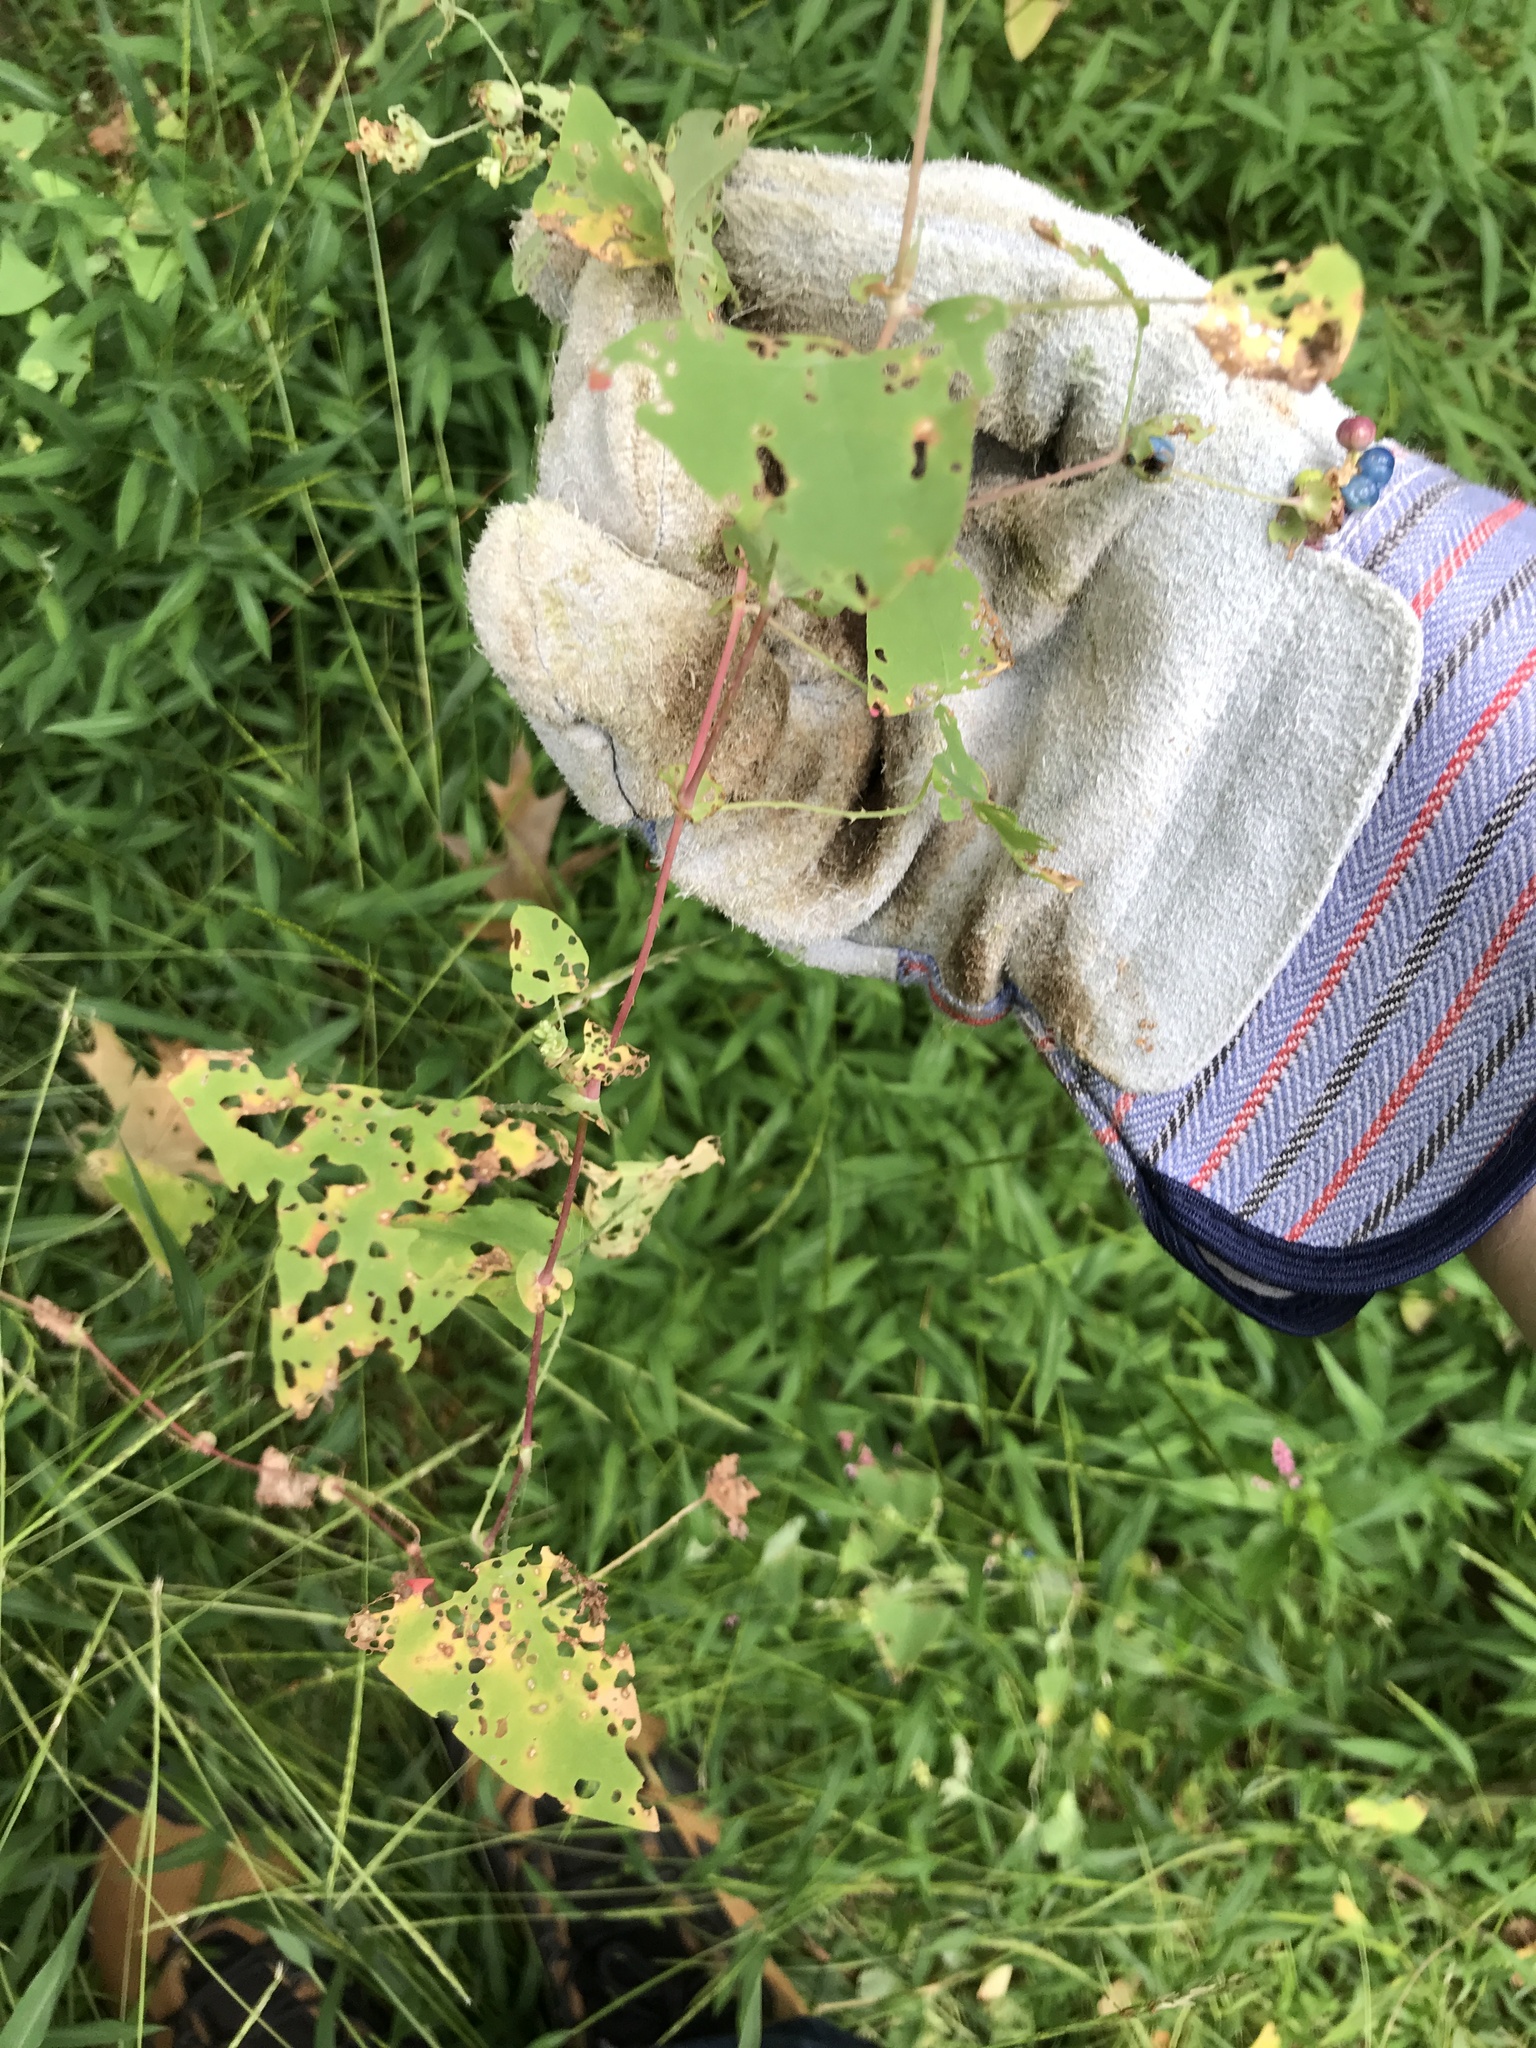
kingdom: Animalia
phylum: Arthropoda
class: Insecta
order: Coleoptera
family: Curculionidae
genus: Rhinoncomimus
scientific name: Rhinoncomimus latipes
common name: Chinese weevil
